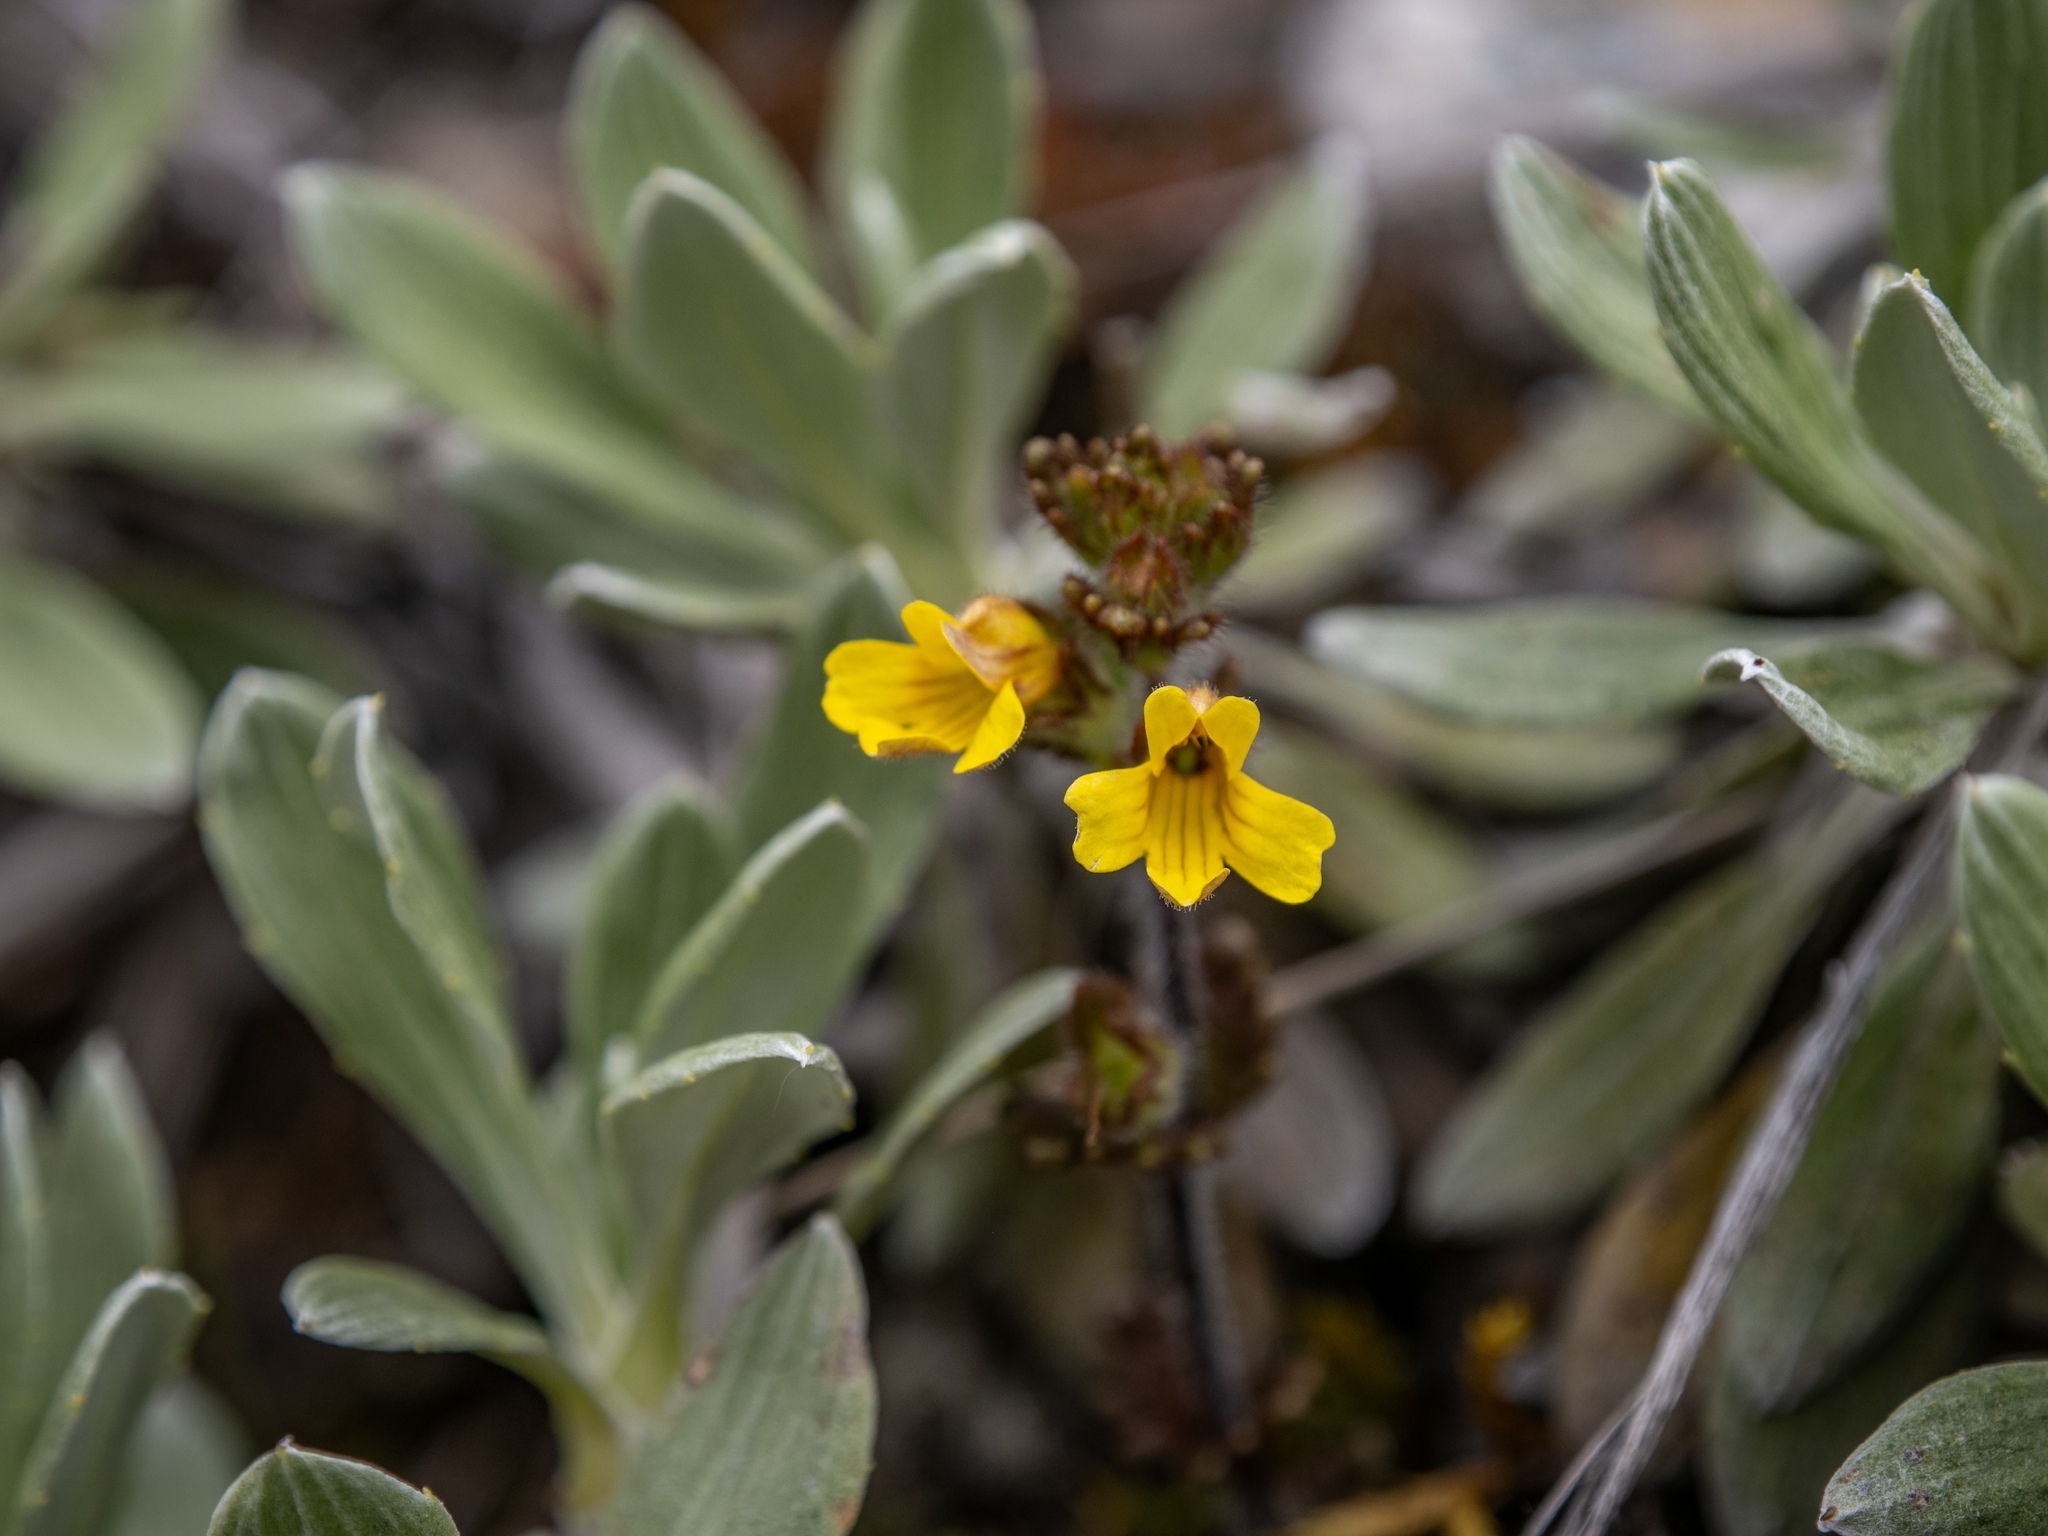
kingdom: Plantae
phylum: Tracheophyta
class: Magnoliopsida
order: Lamiales
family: Orobanchaceae
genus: Euphrasia
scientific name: Euphrasia cockayneana
